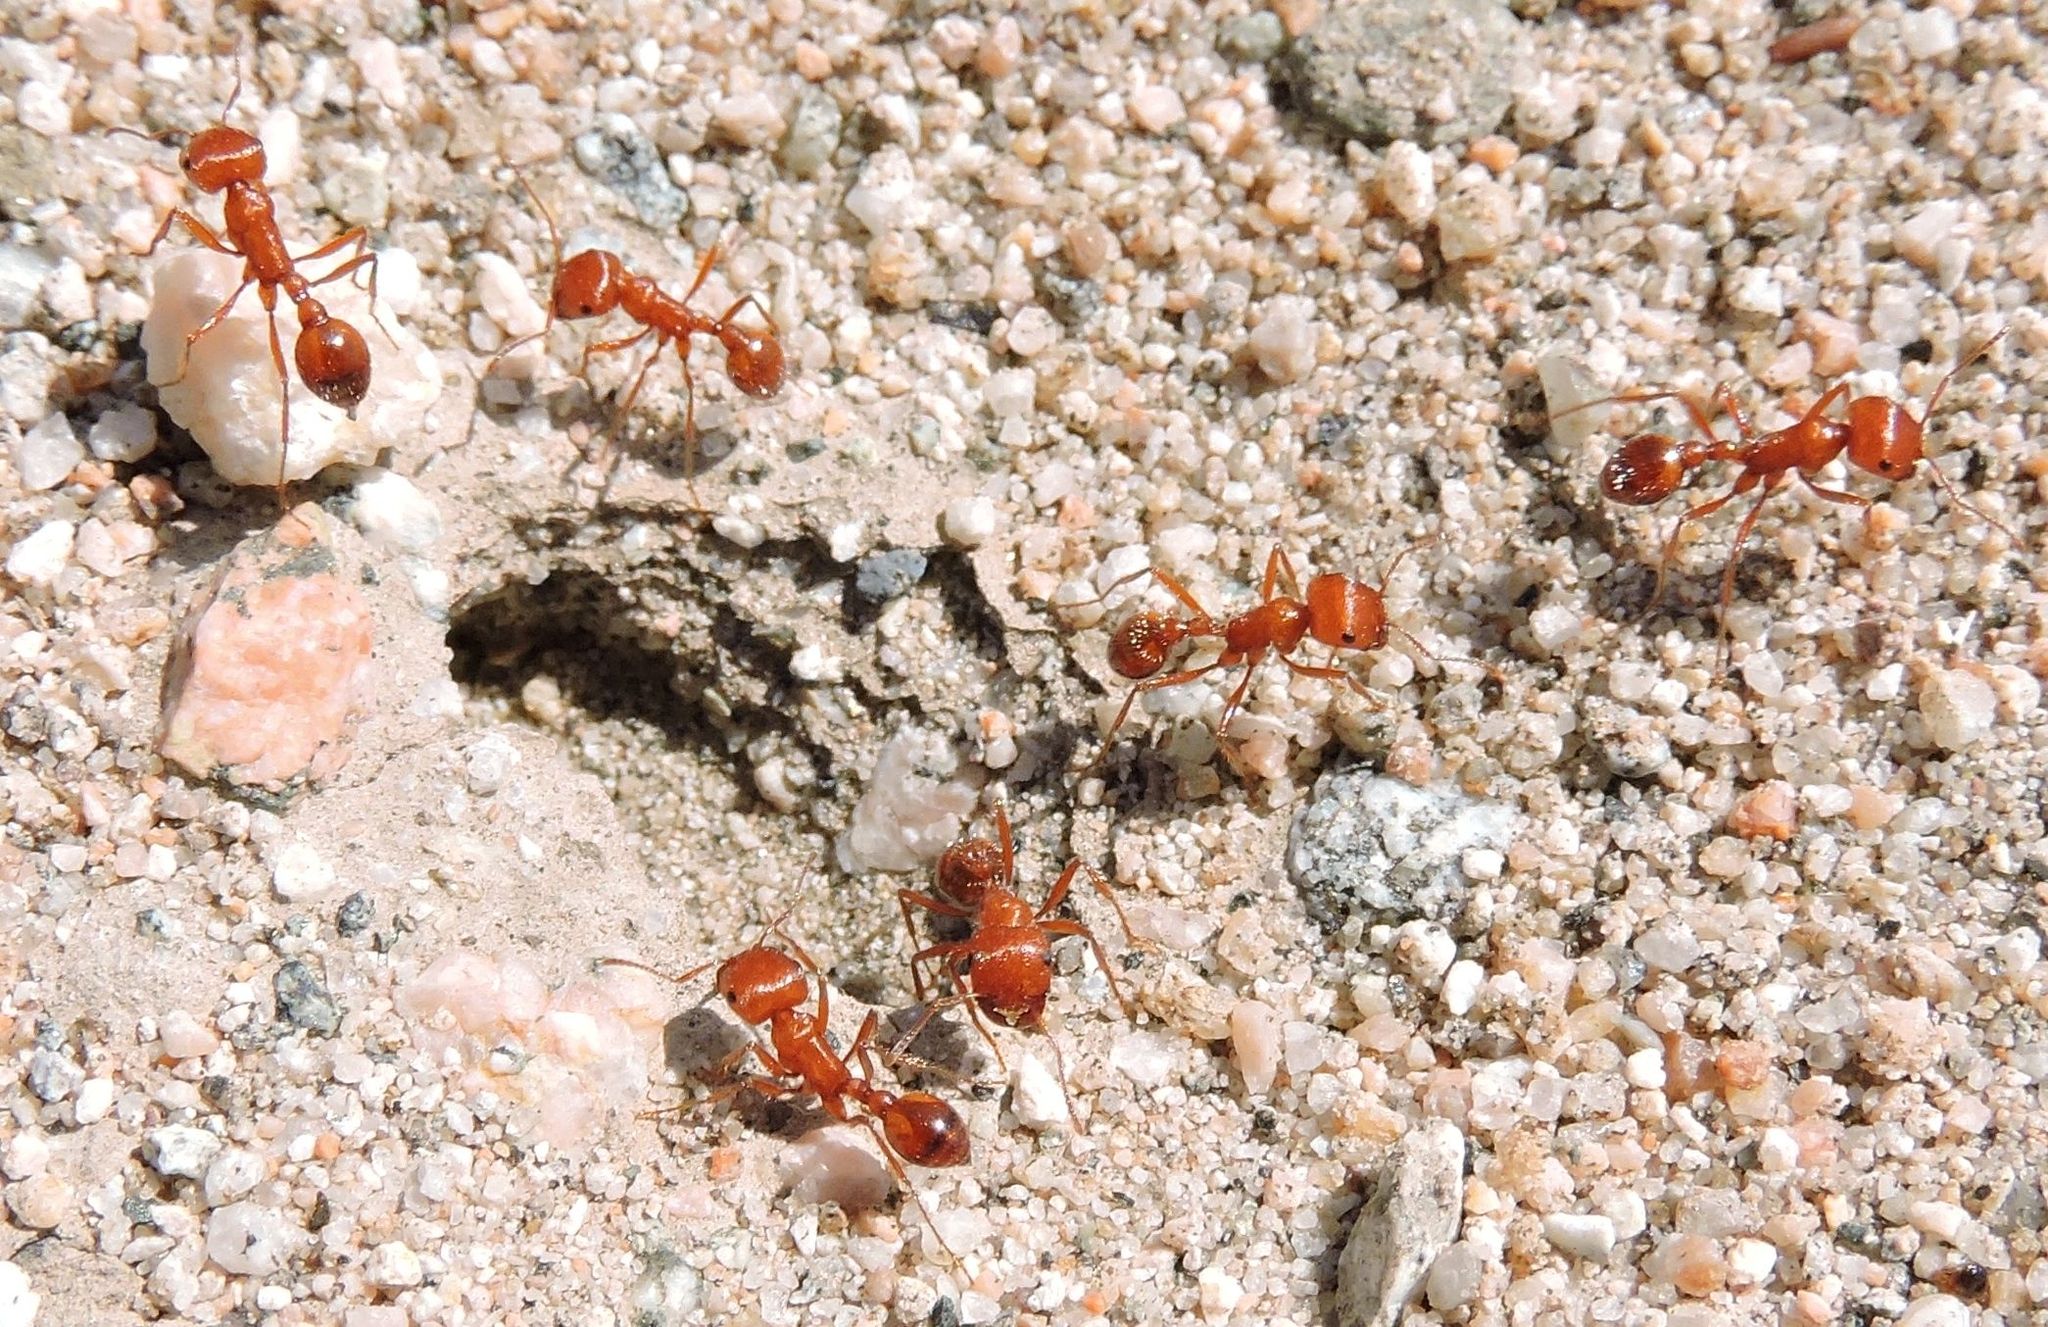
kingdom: Animalia
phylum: Arthropoda
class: Insecta
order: Hymenoptera
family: Formicidae
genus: Pogonomyrmex
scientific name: Pogonomyrmex californicus
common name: California harvester ant
